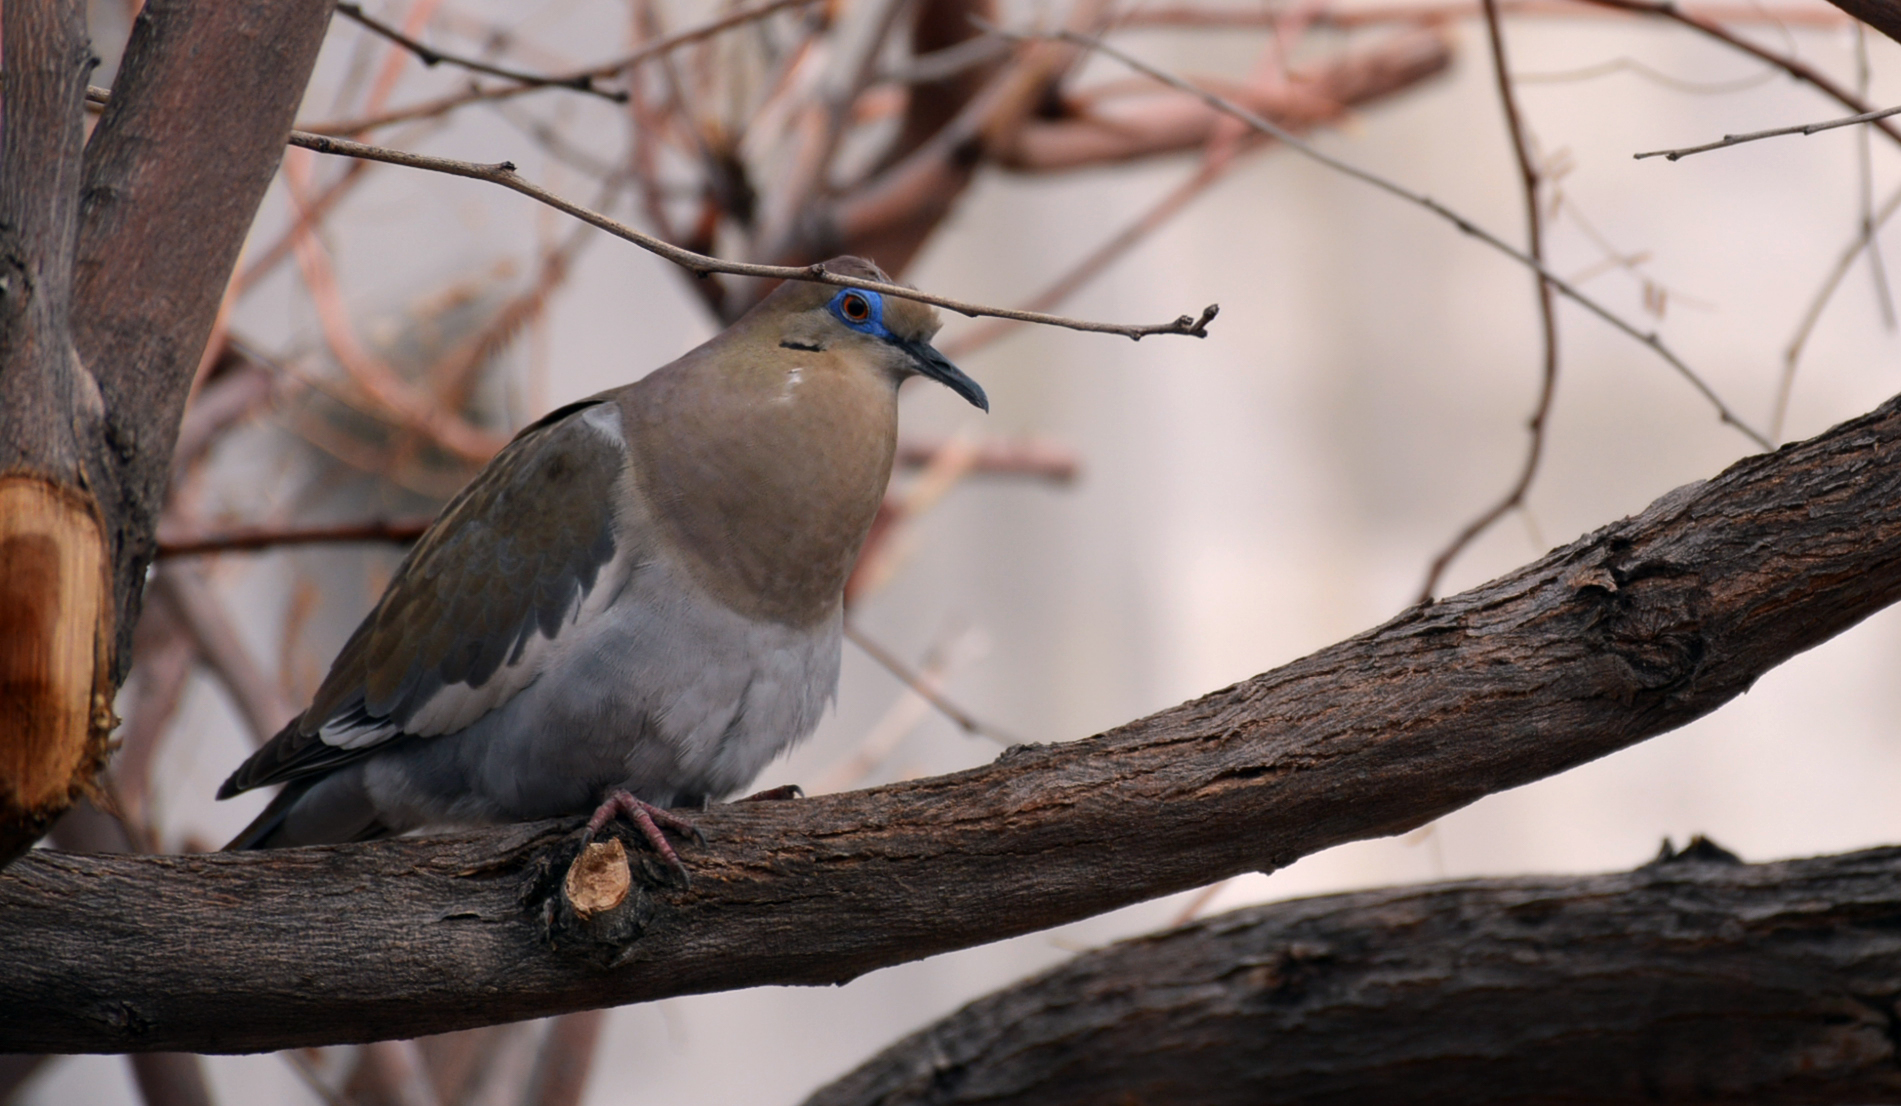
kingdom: Animalia
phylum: Chordata
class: Aves
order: Columbiformes
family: Columbidae
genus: Zenaida
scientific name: Zenaida asiatica
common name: White-winged dove
